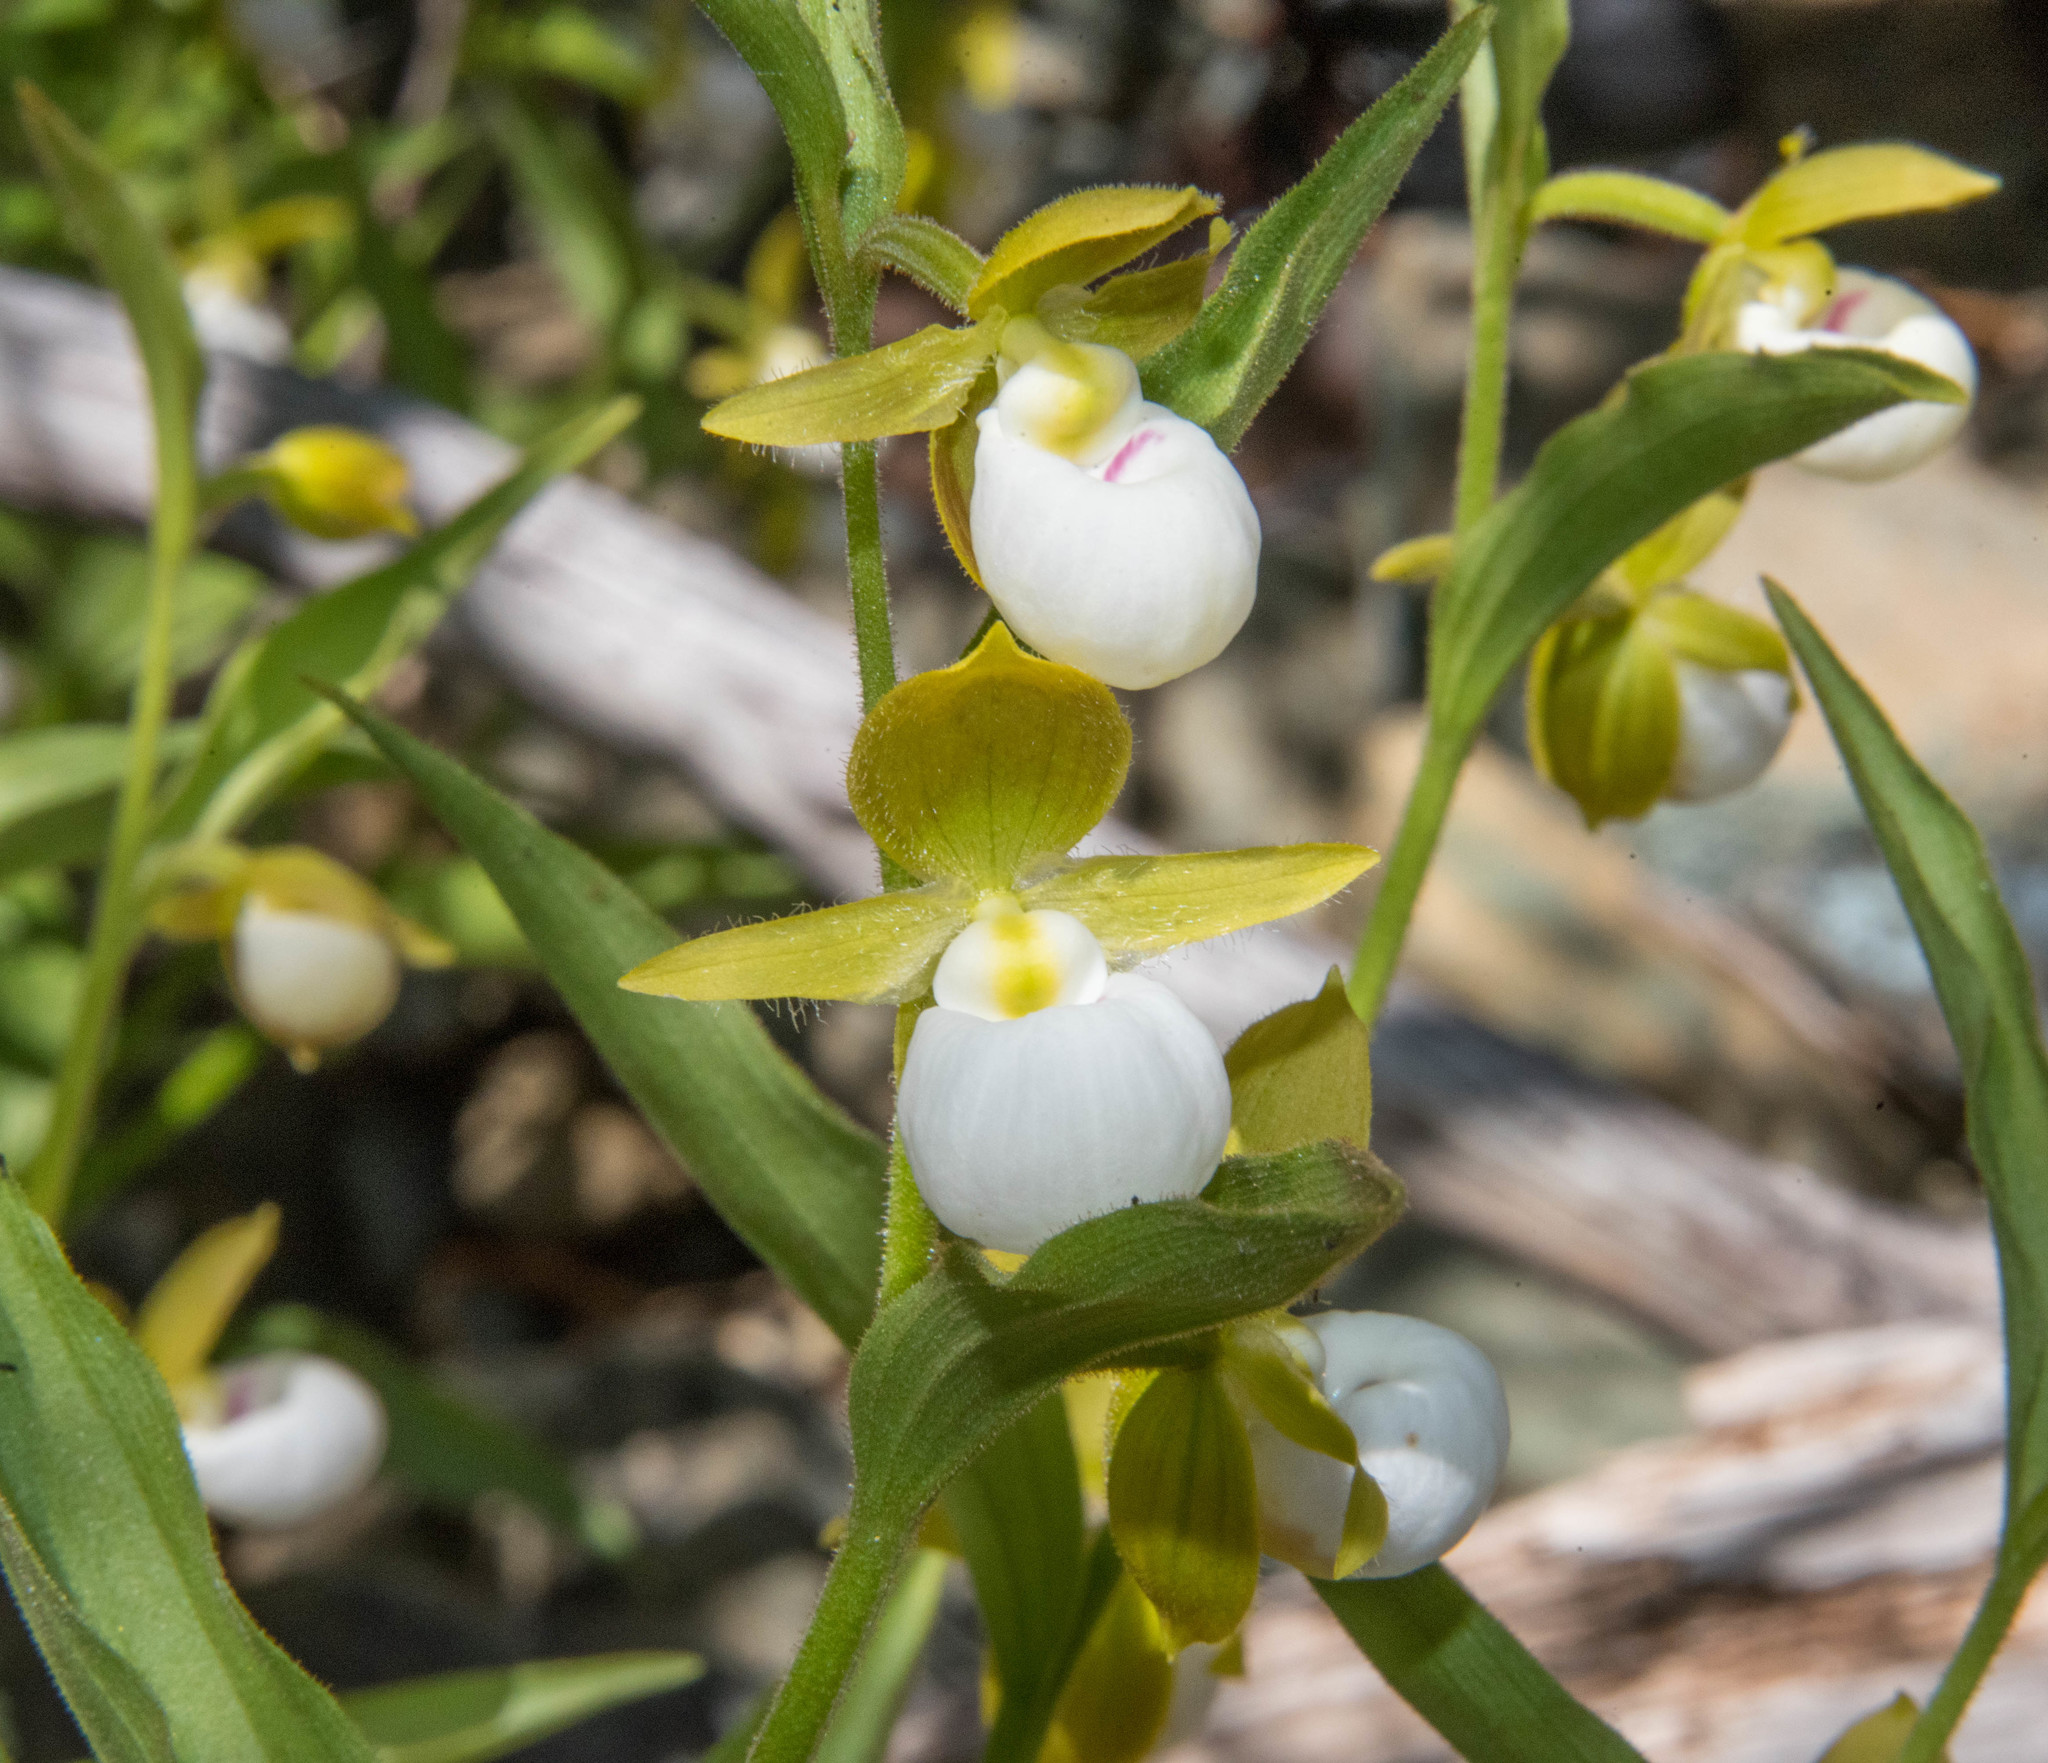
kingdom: Plantae
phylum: Tracheophyta
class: Liliopsida
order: Asparagales
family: Orchidaceae
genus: Cypripedium
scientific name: Cypripedium californicum
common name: California lady's slipper
